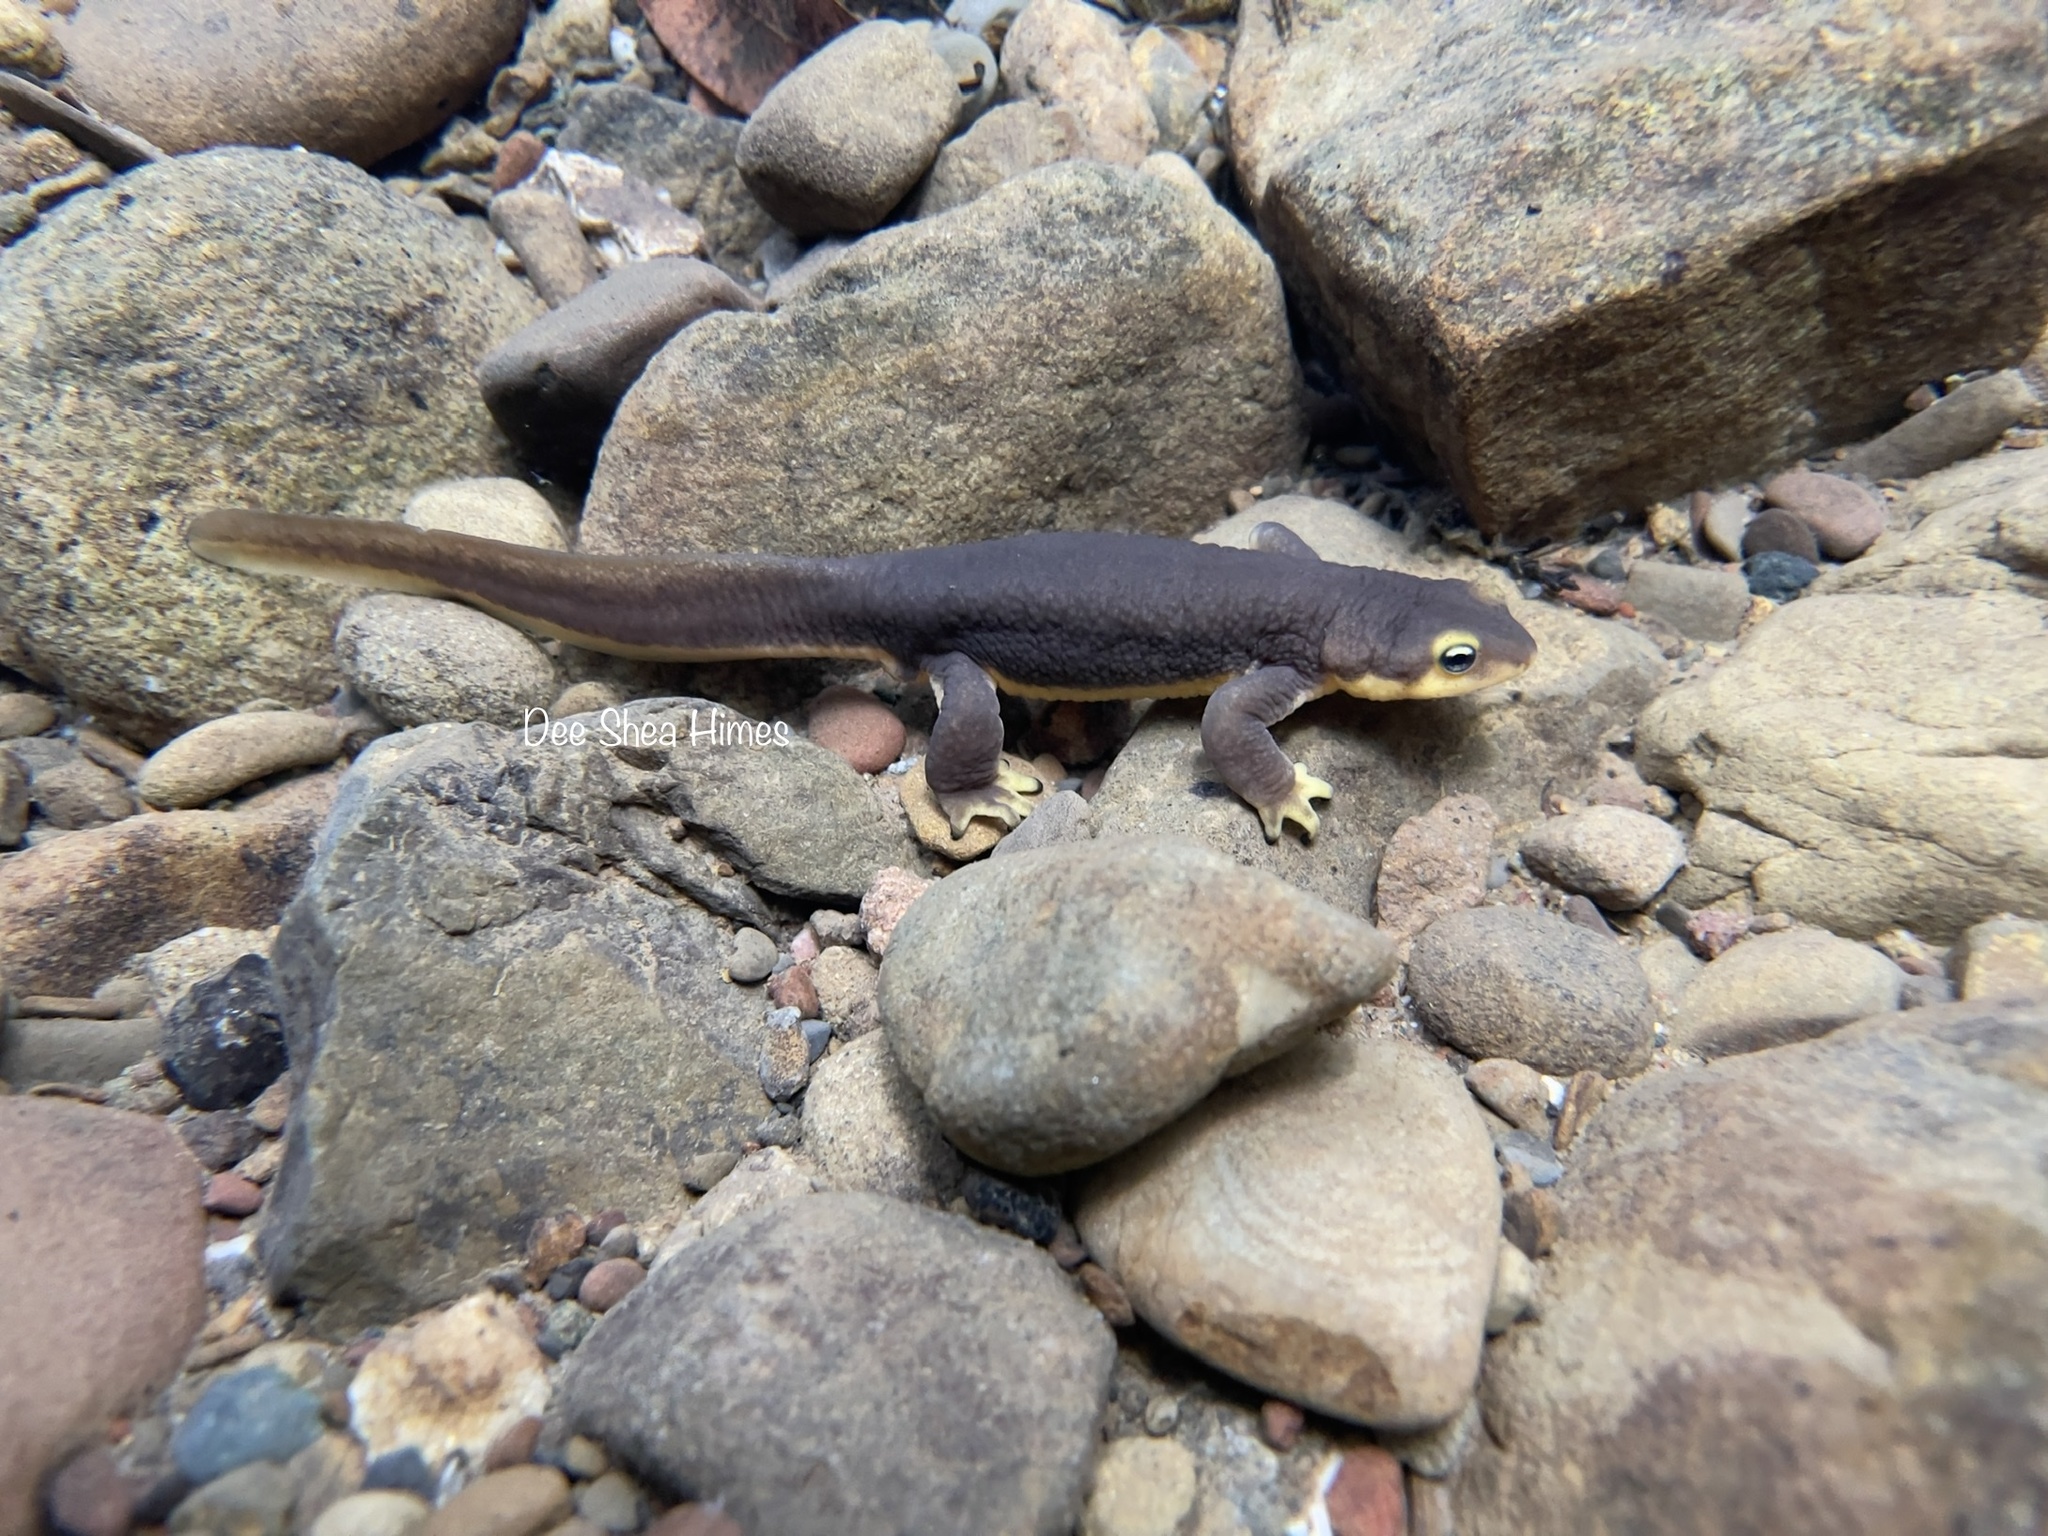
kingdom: Animalia
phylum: Chordata
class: Amphibia
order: Caudata
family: Salamandridae
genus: Taricha
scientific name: Taricha torosa
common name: California newt
